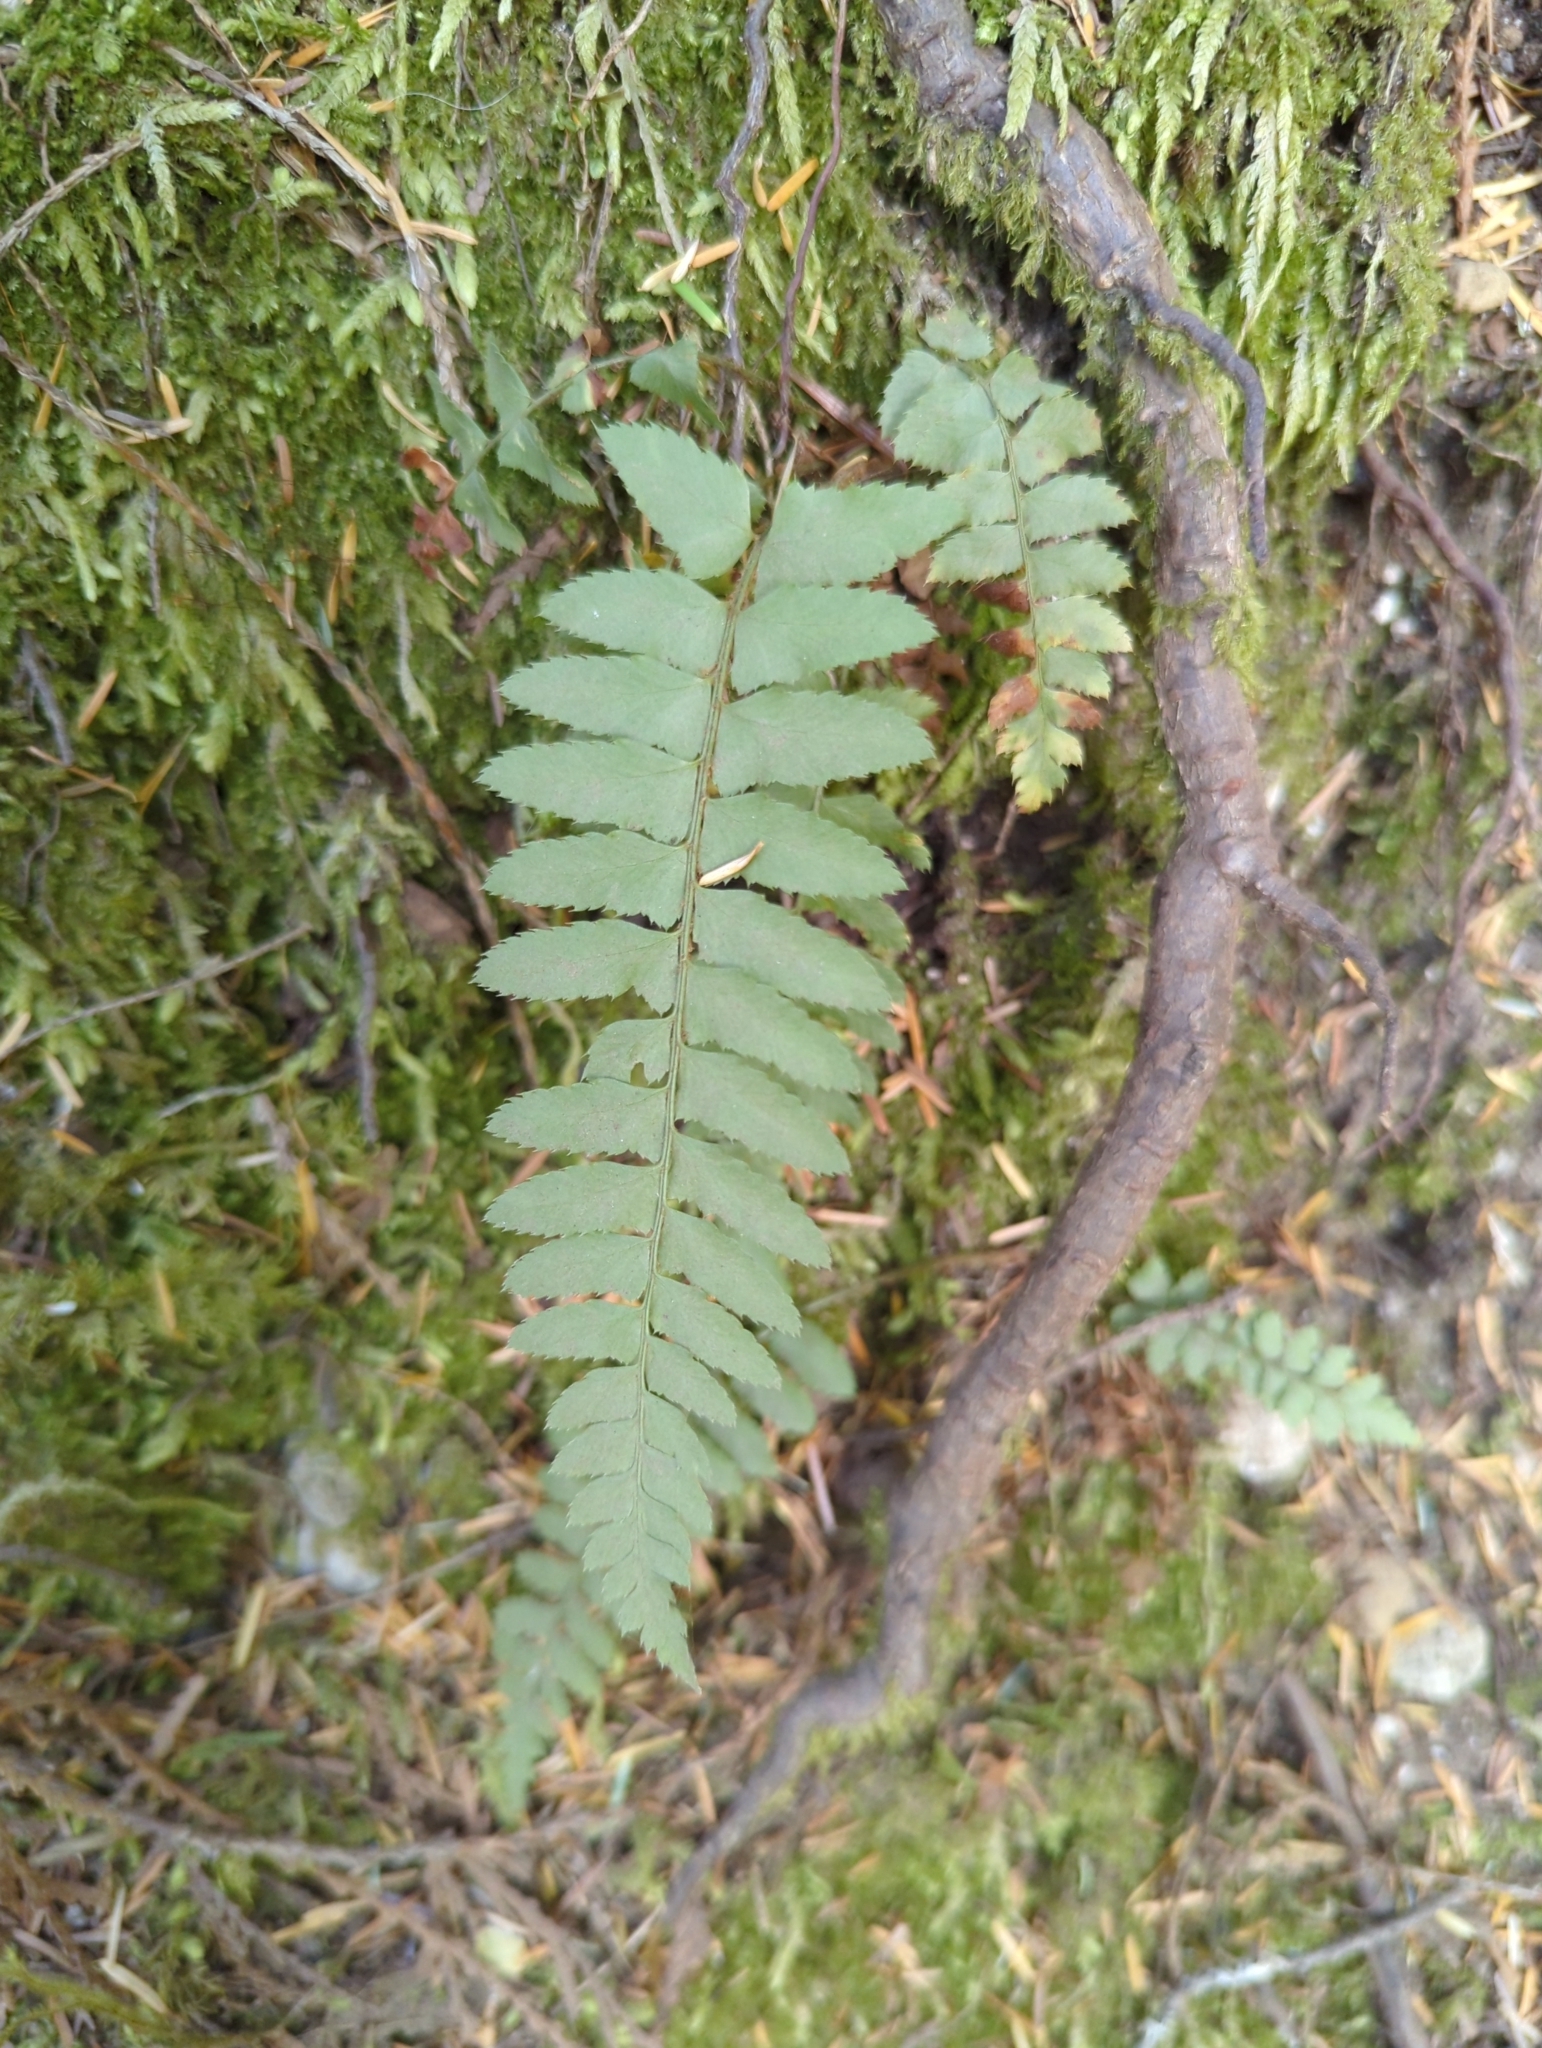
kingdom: Plantae
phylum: Tracheophyta
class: Polypodiopsida
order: Polypodiales
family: Dryopteridaceae
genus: Polystichum
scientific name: Polystichum munitum
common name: Western sword-fern
